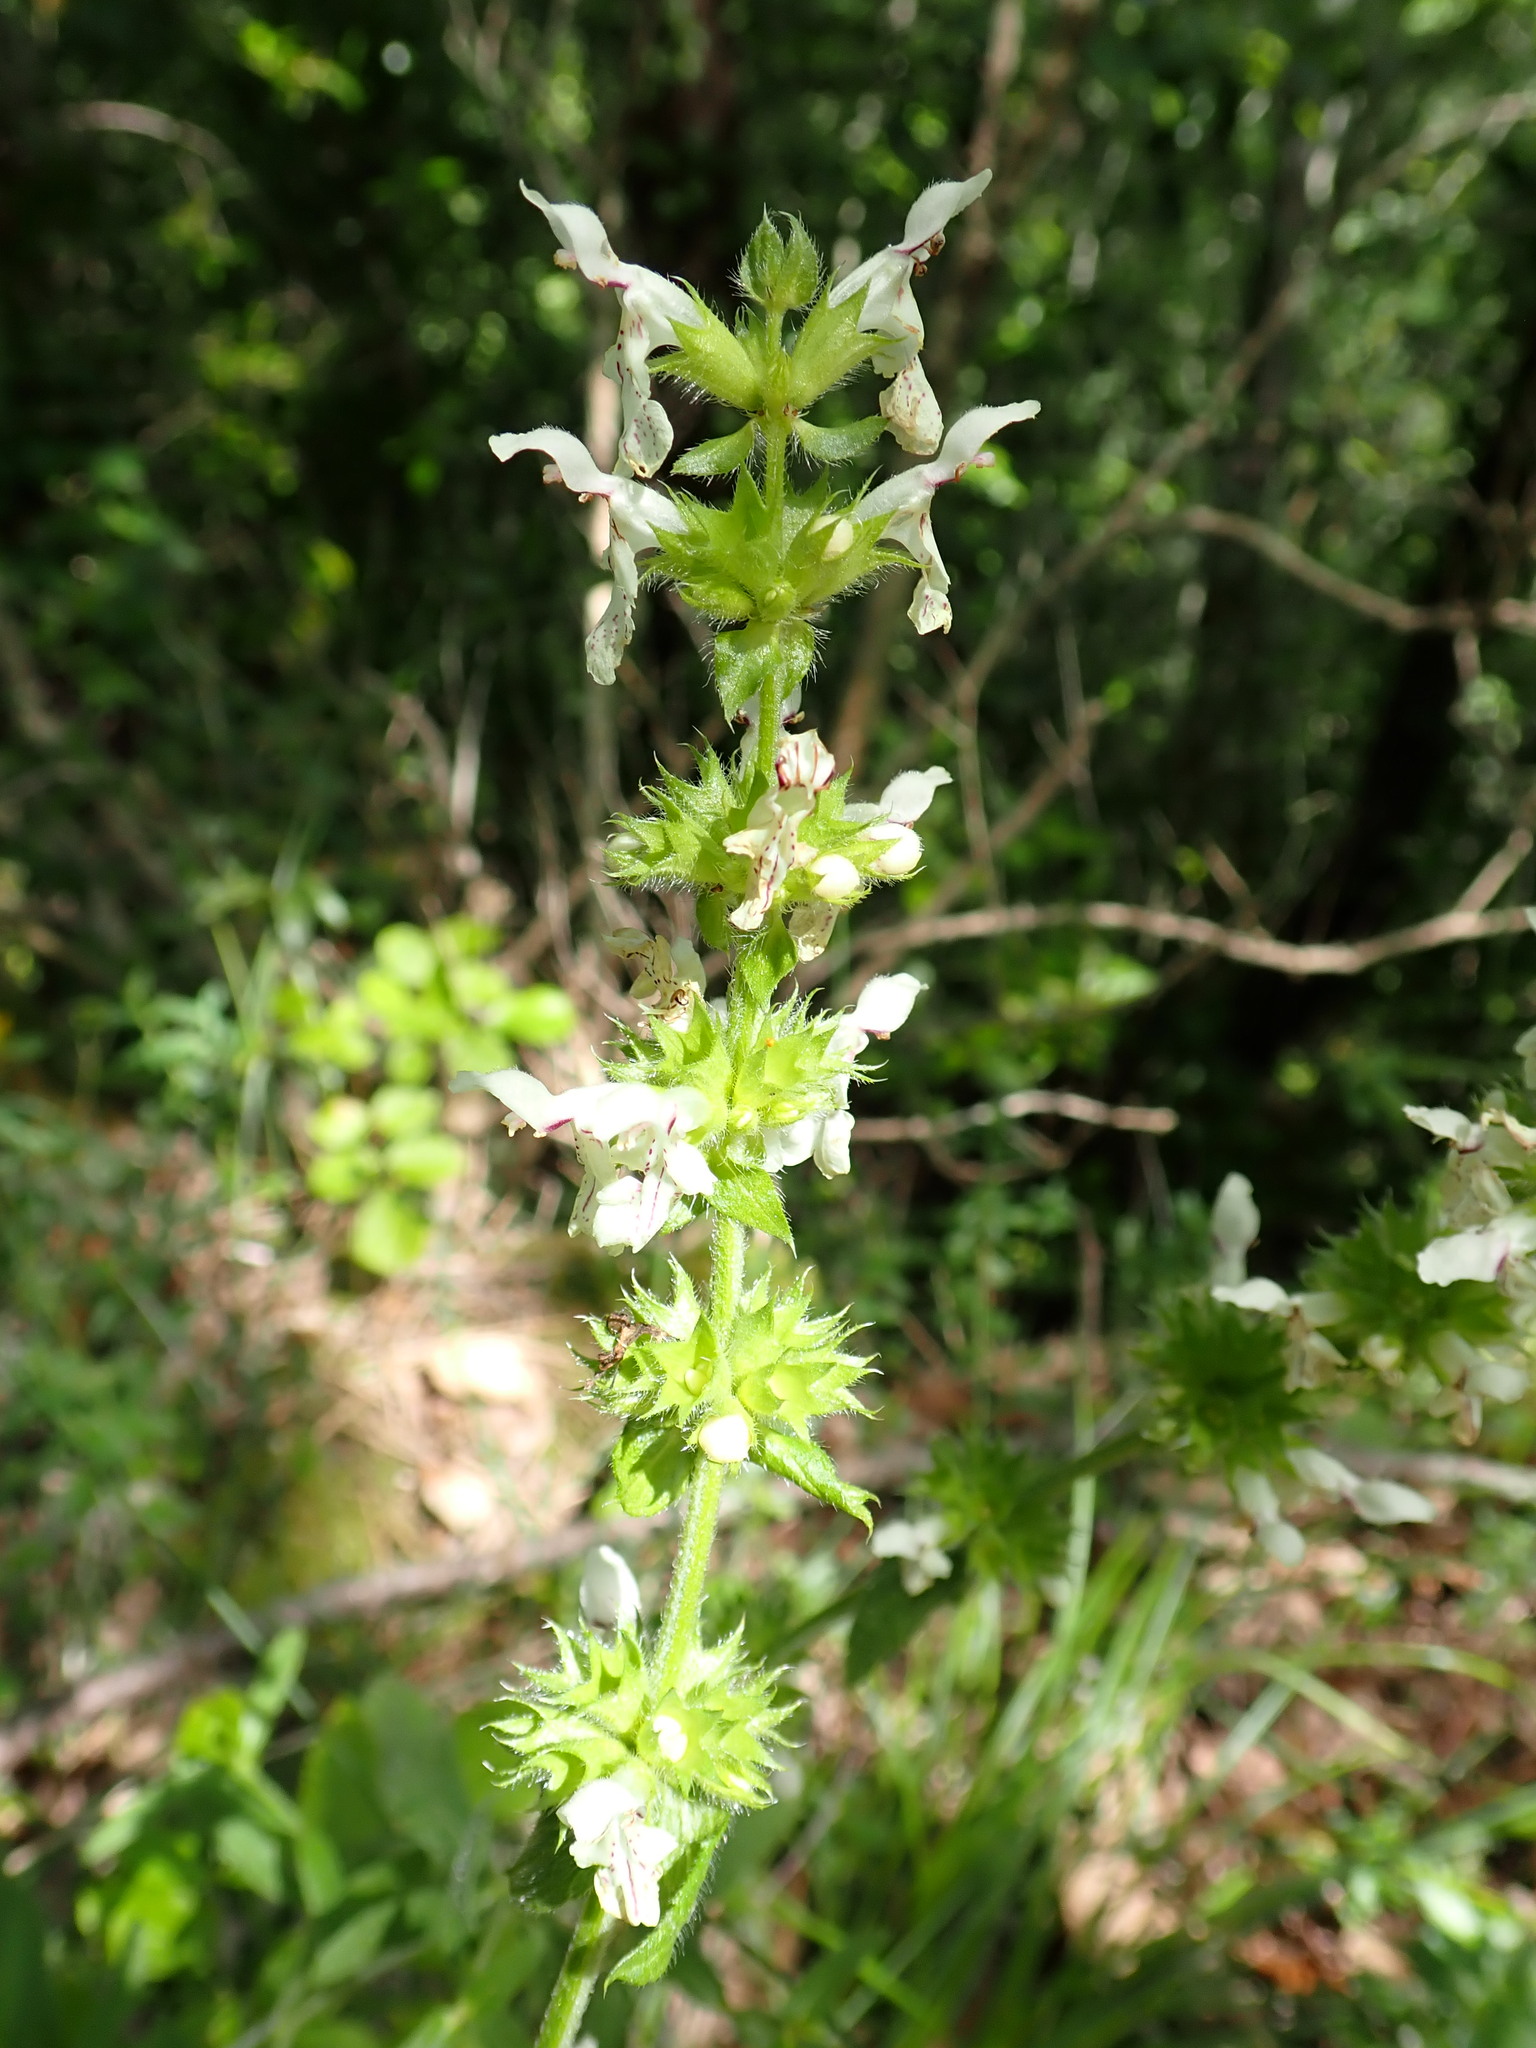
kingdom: Plantae
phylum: Tracheophyta
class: Magnoliopsida
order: Lamiales
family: Lamiaceae
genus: Stachys
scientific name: Stachys recta
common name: Perennial yellow-woundwort
